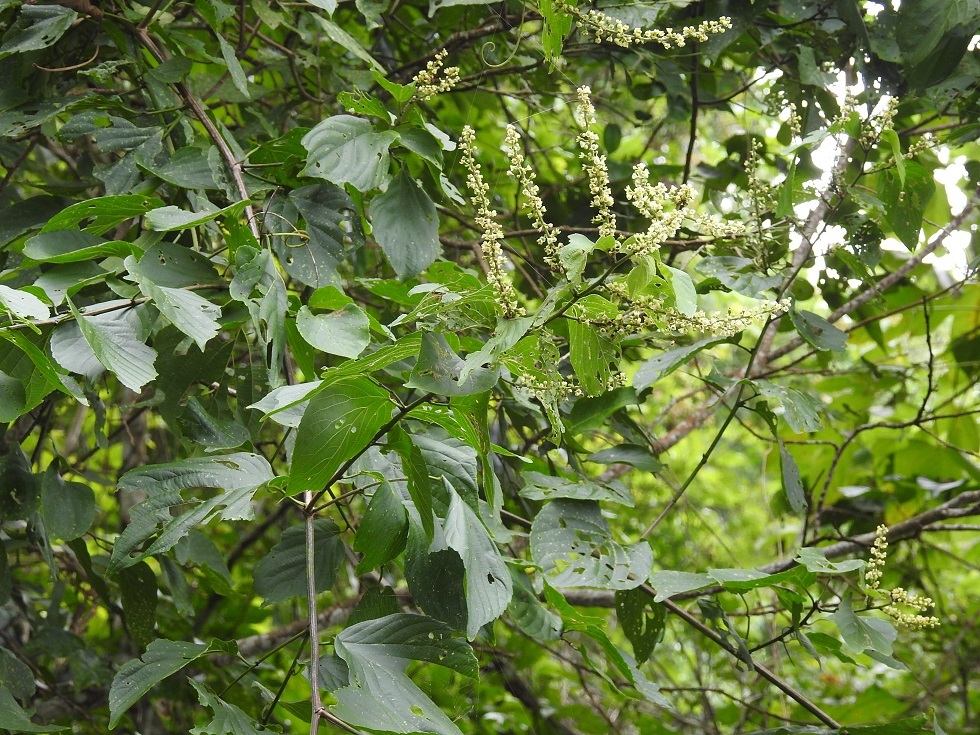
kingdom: Plantae
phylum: Tracheophyta
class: Magnoliopsida
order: Rosales
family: Rhamnaceae
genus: Gouania
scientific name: Gouania lupuloides
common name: Chewstick
